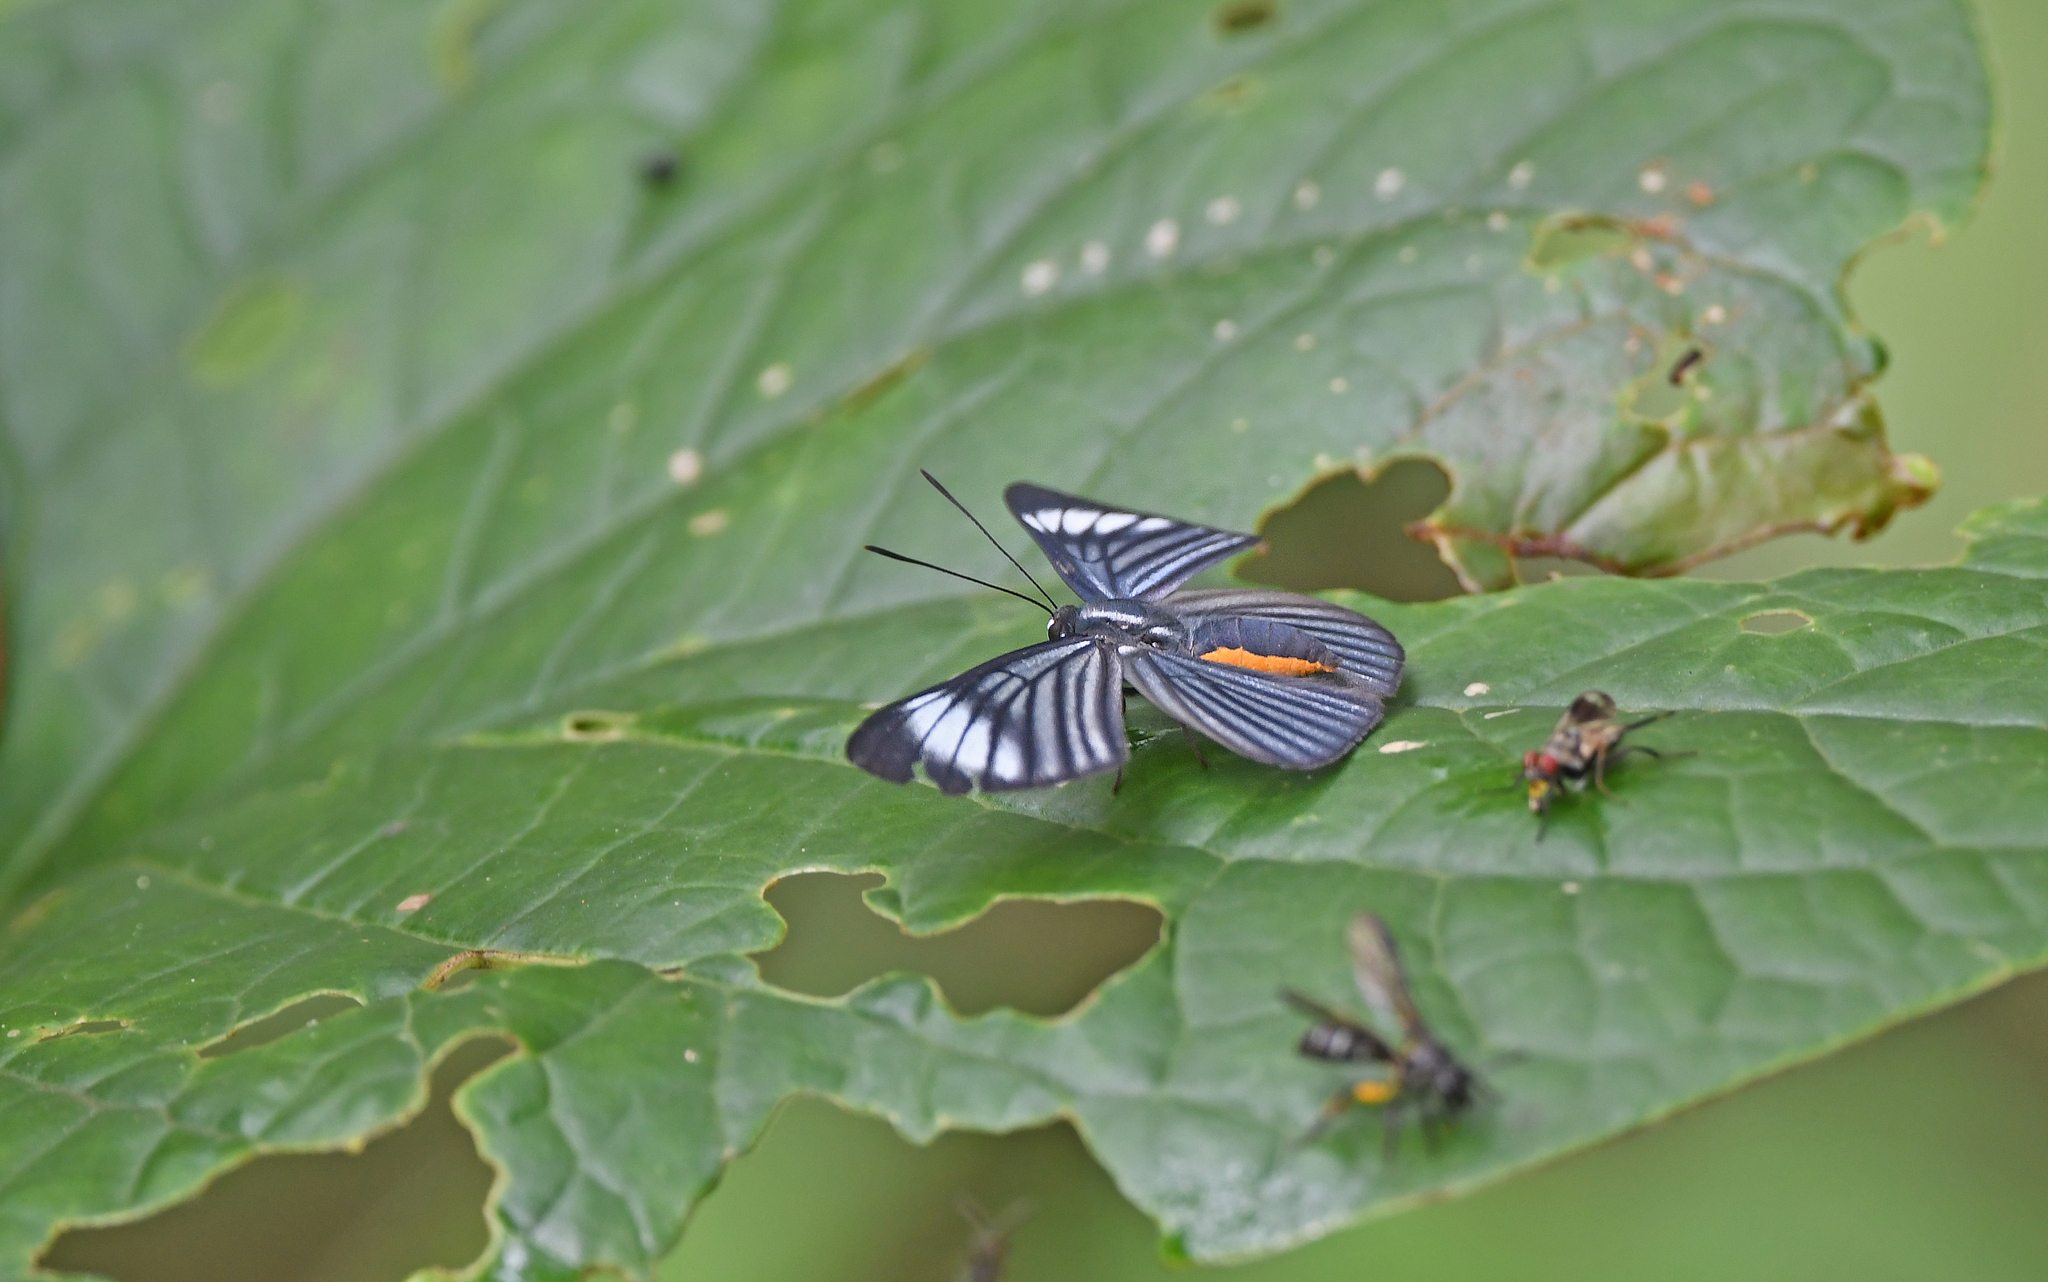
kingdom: Animalia
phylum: Arthropoda
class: Insecta
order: Lepidoptera
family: Riodinidae
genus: Brachyglenis
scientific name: Brachyglenis esthema
